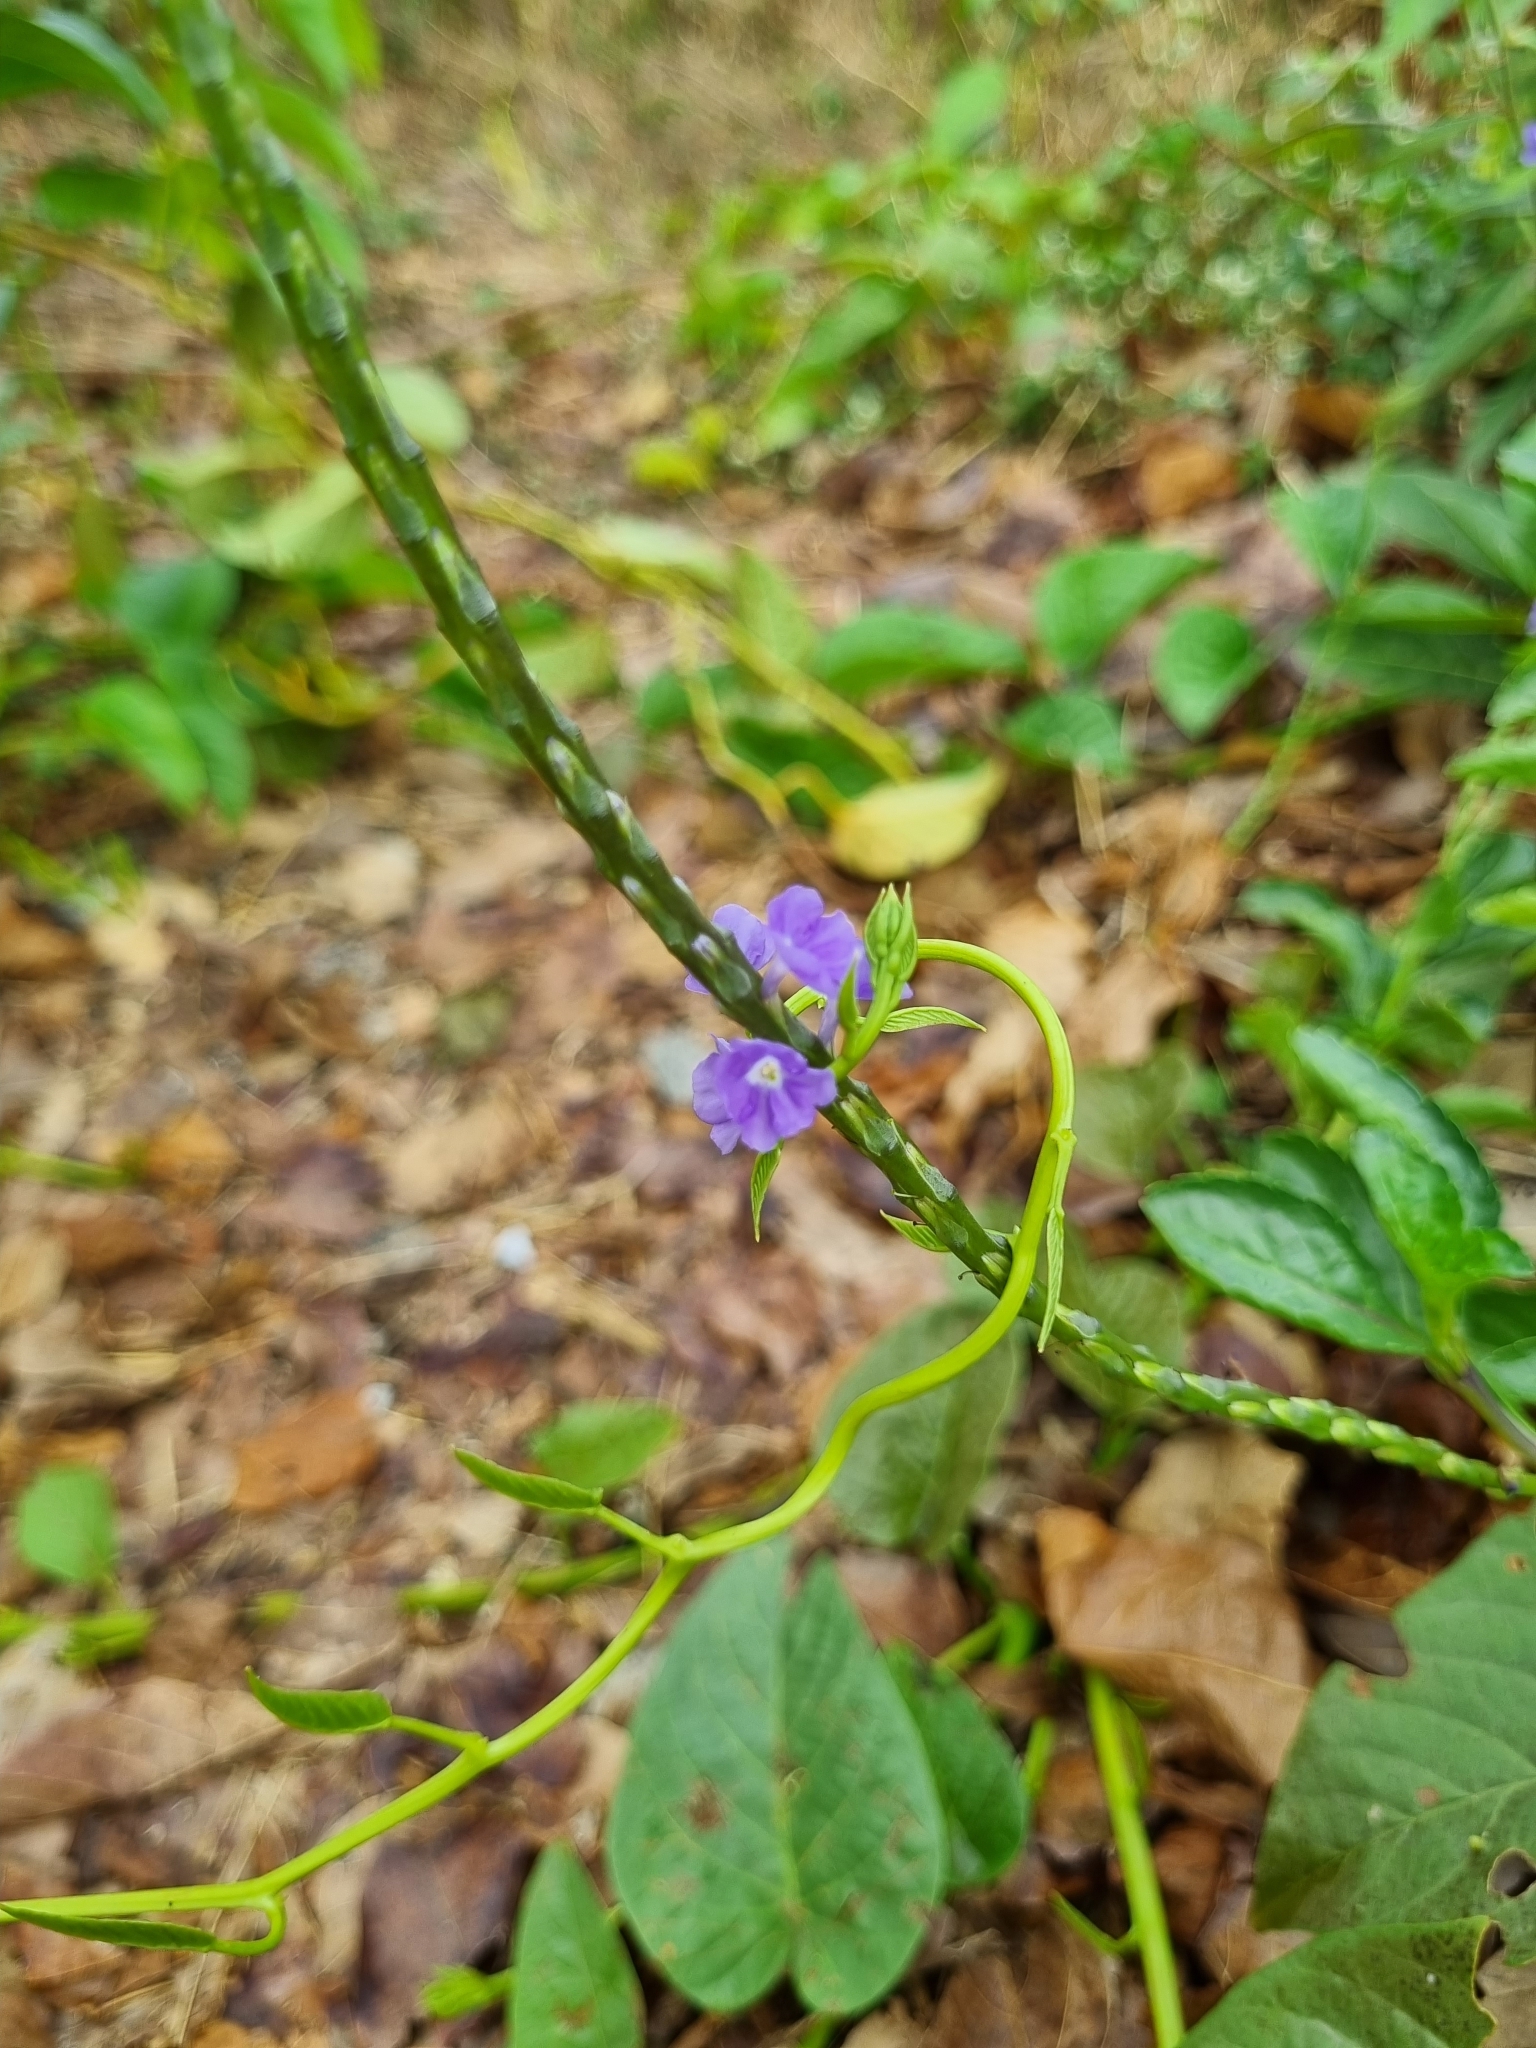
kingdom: Plantae
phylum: Tracheophyta
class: Magnoliopsida
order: Lamiales
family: Verbenaceae
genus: Stachytarpheta
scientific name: Stachytarpheta jamaicensis
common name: Light-blue snakeweed
